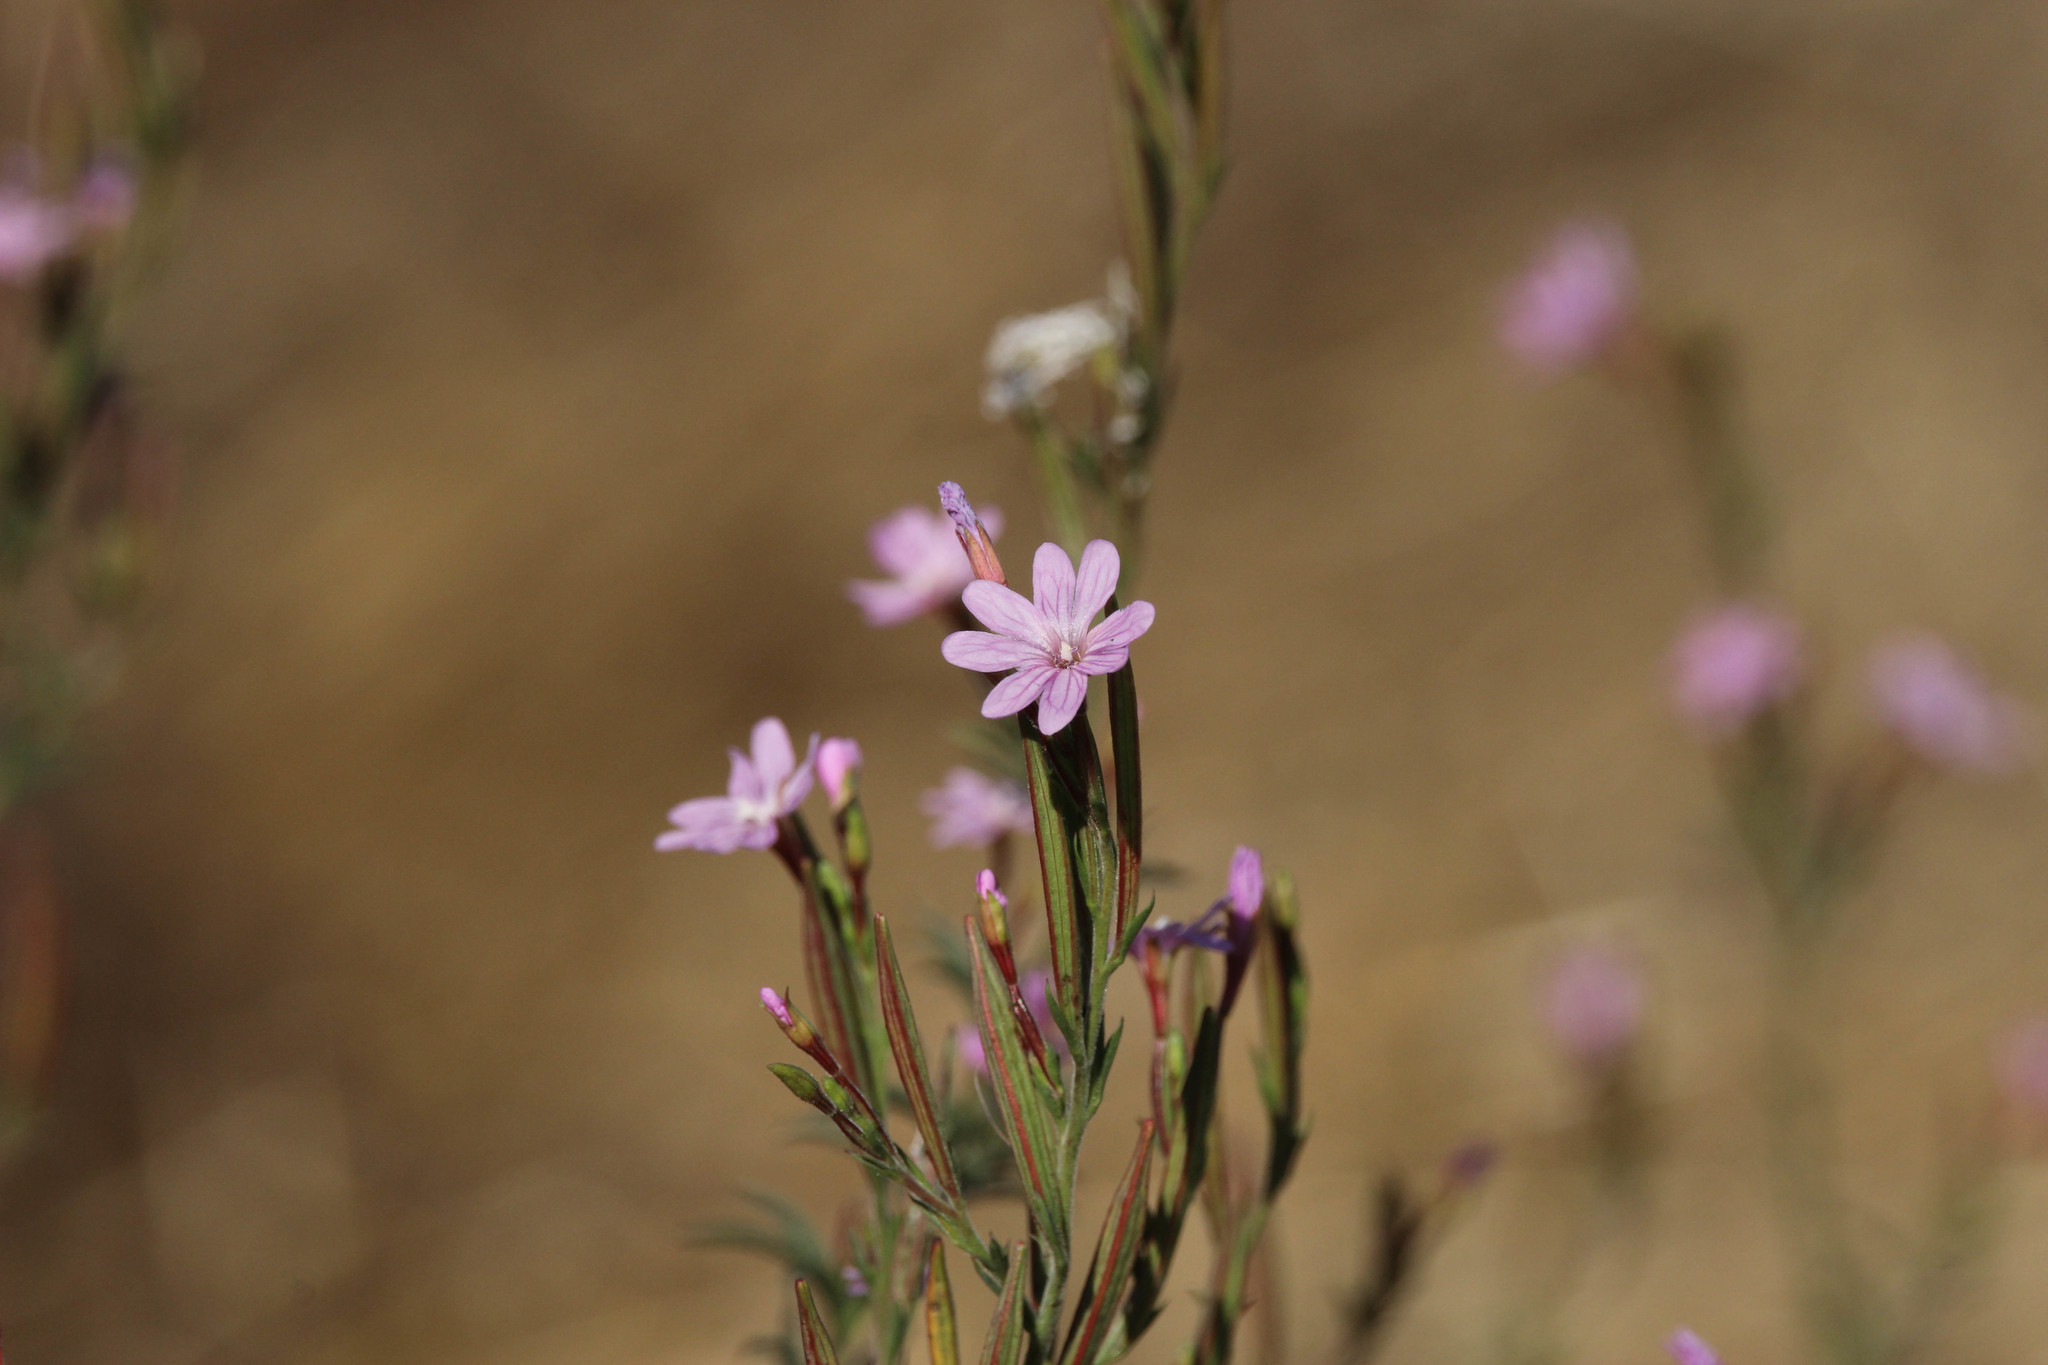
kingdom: Plantae
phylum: Tracheophyta
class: Magnoliopsida
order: Myrtales
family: Onagraceae
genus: Epilobium
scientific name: Epilobium brachycarpum
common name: Annual willowherb
